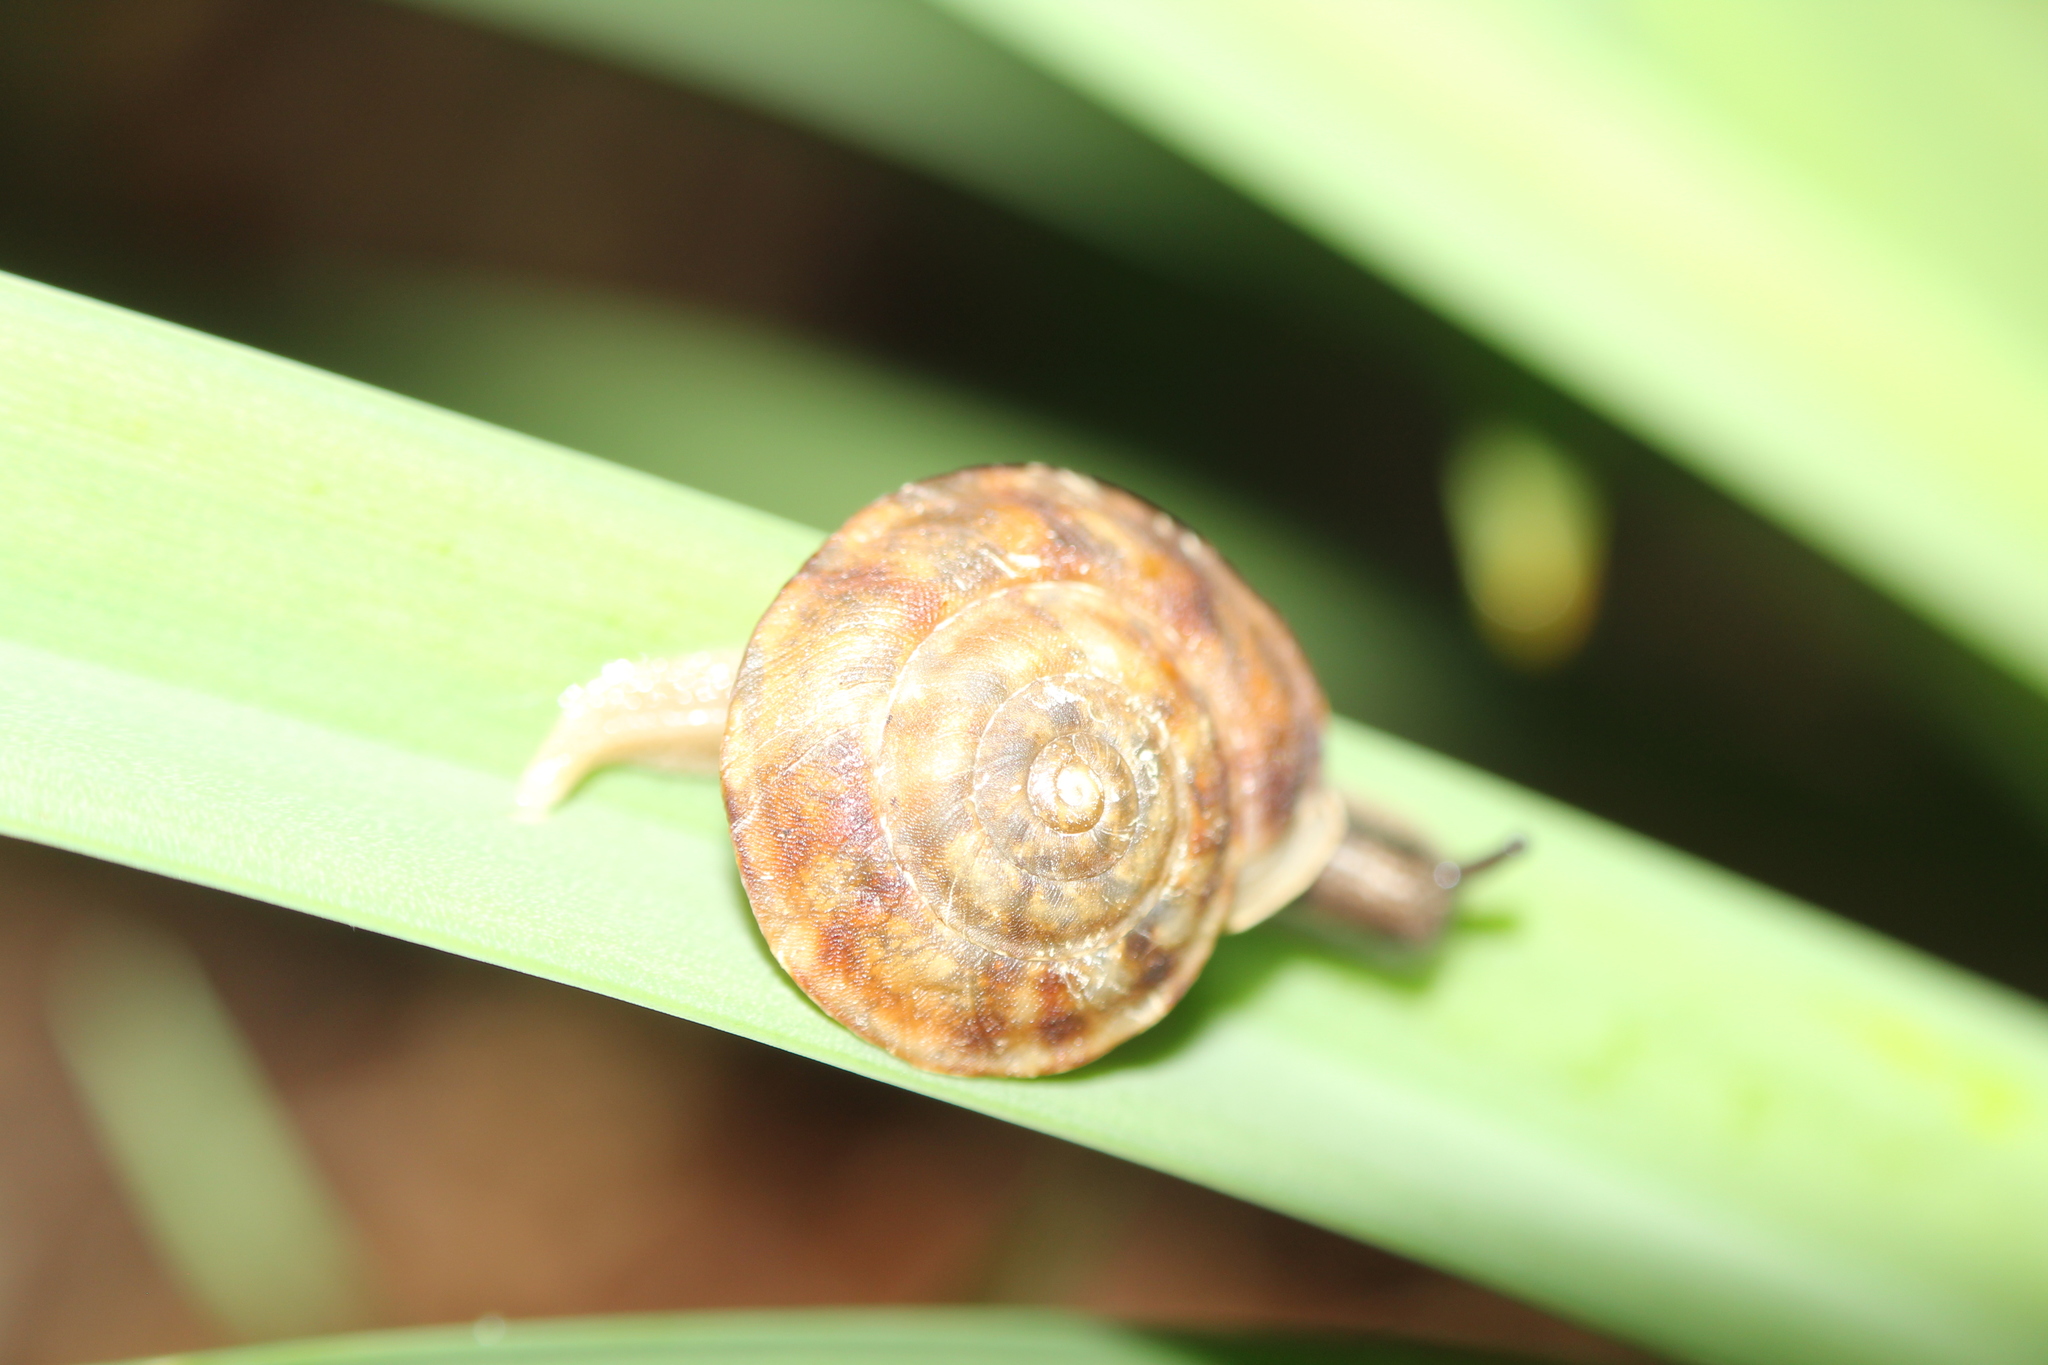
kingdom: Animalia
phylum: Mollusca
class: Gastropoda
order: Stylommatophora
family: Helicidae
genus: Helicigona
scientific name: Helicigona lapicida
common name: Lapidary snail
